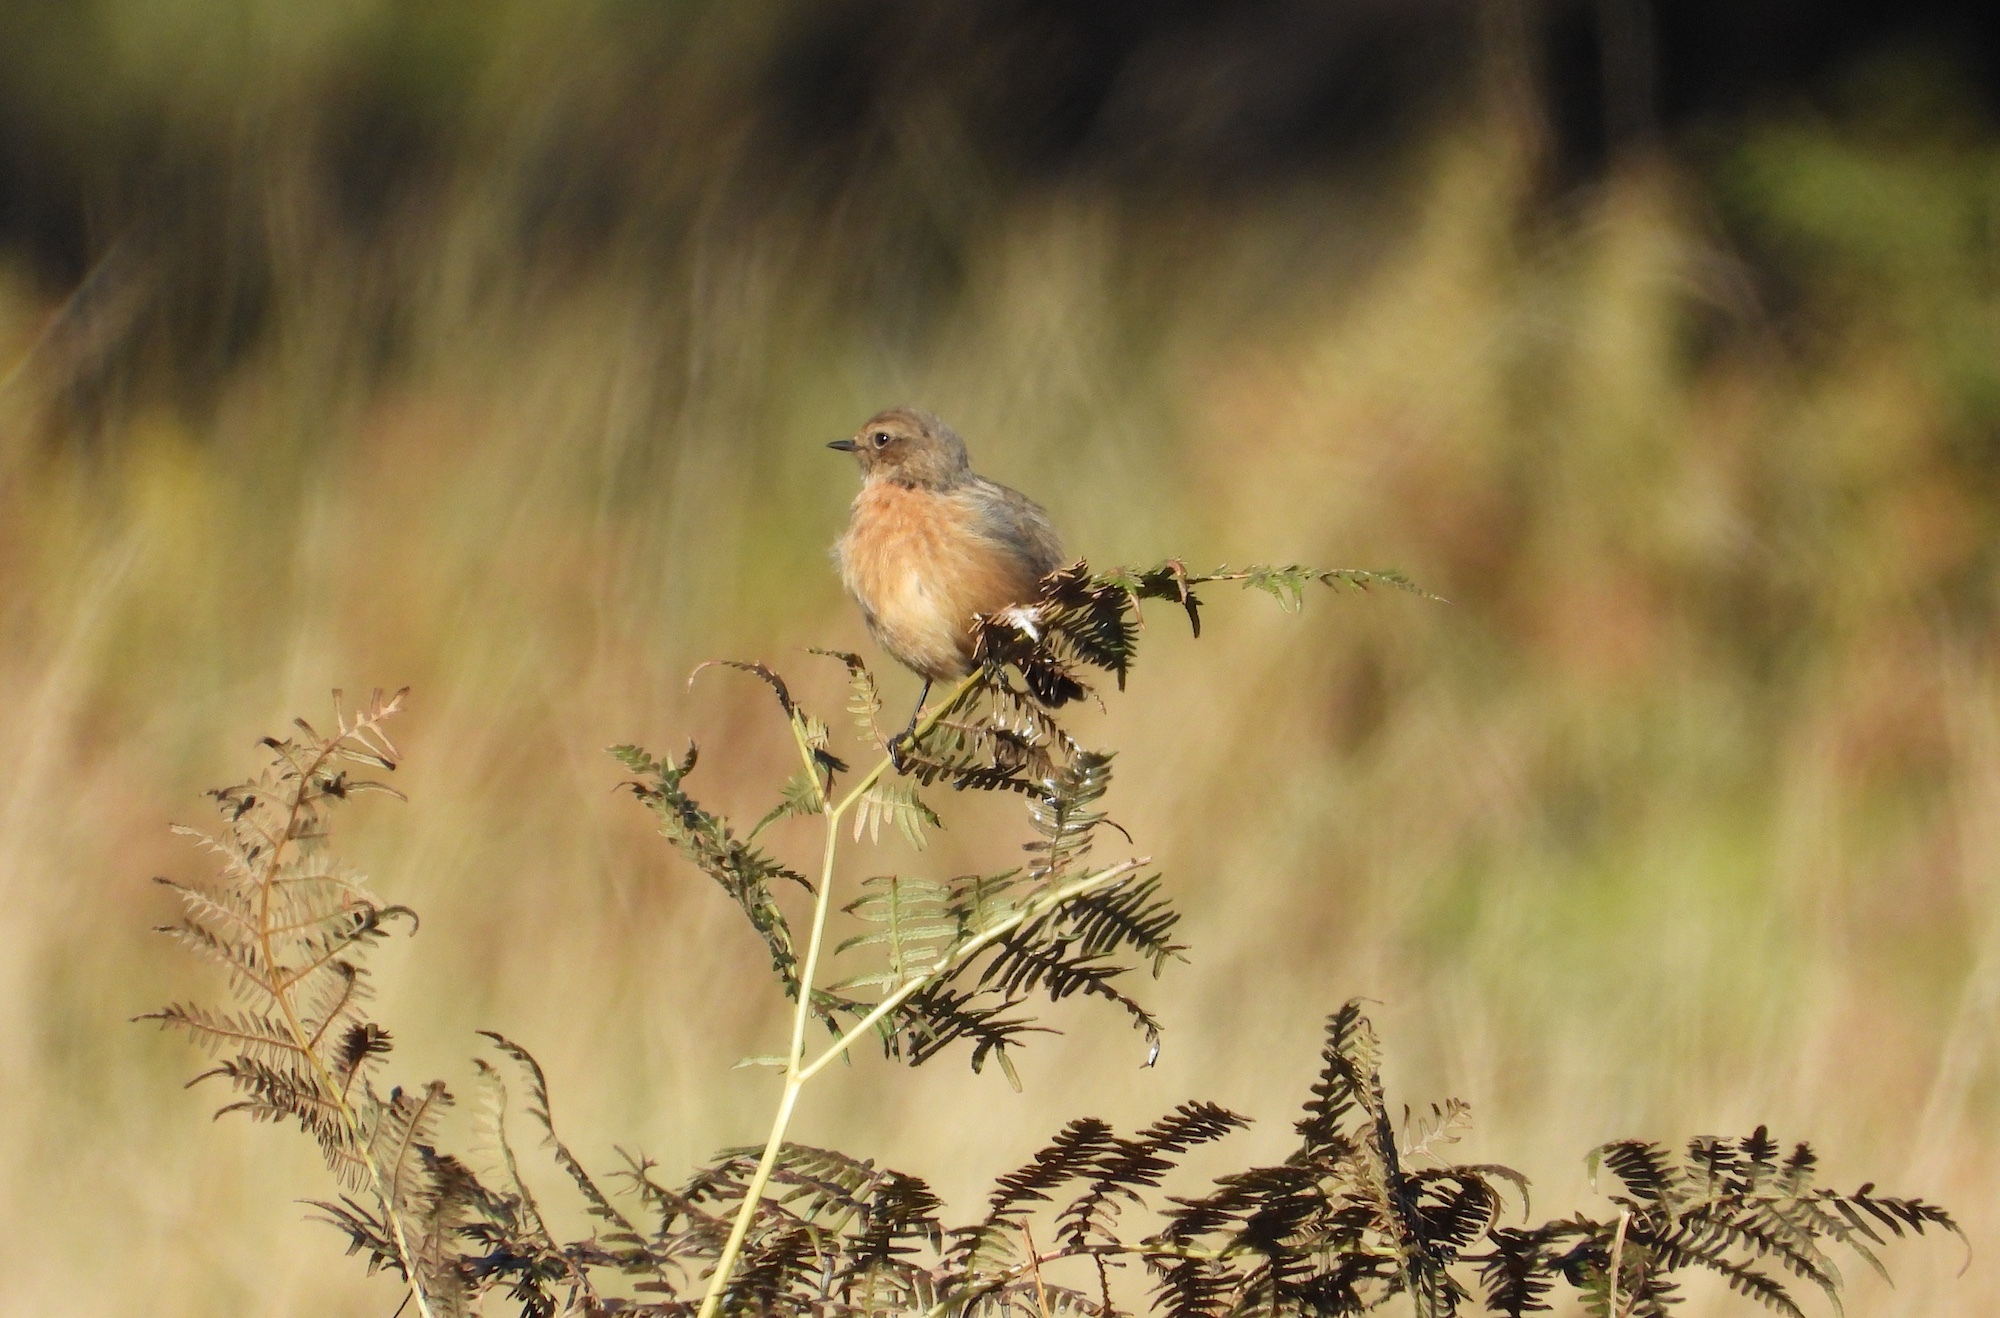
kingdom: Animalia
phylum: Chordata
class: Aves
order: Passeriformes
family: Muscicapidae
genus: Saxicola
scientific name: Saxicola rubicola
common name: European stonechat
